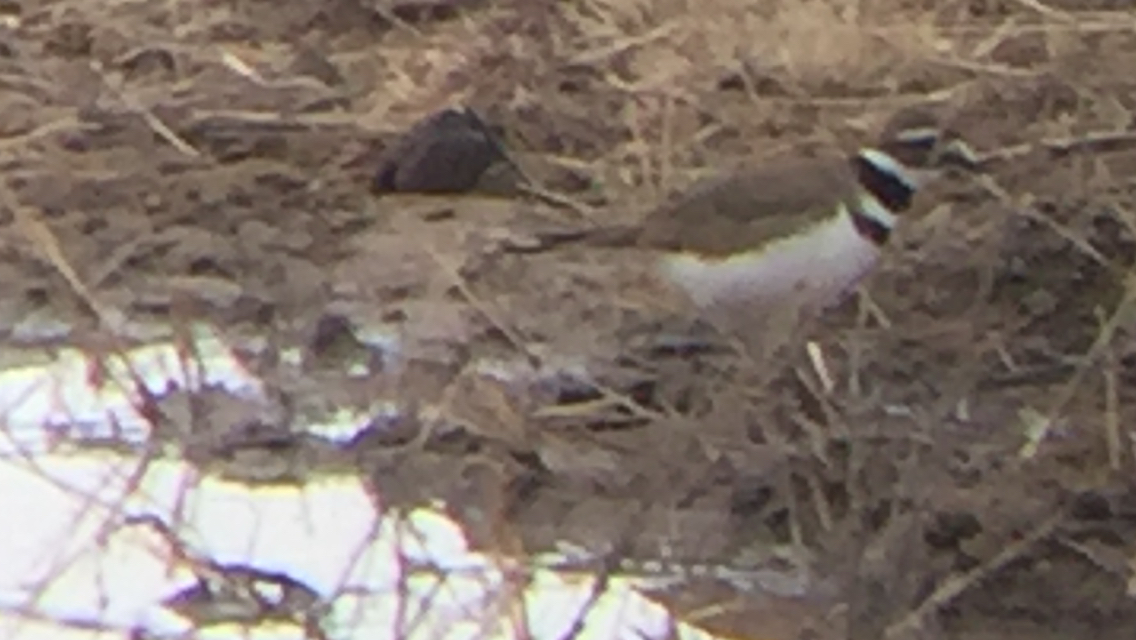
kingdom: Animalia
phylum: Chordata
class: Aves
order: Charadriiformes
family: Charadriidae
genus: Charadrius
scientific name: Charadrius vociferus
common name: Killdeer
